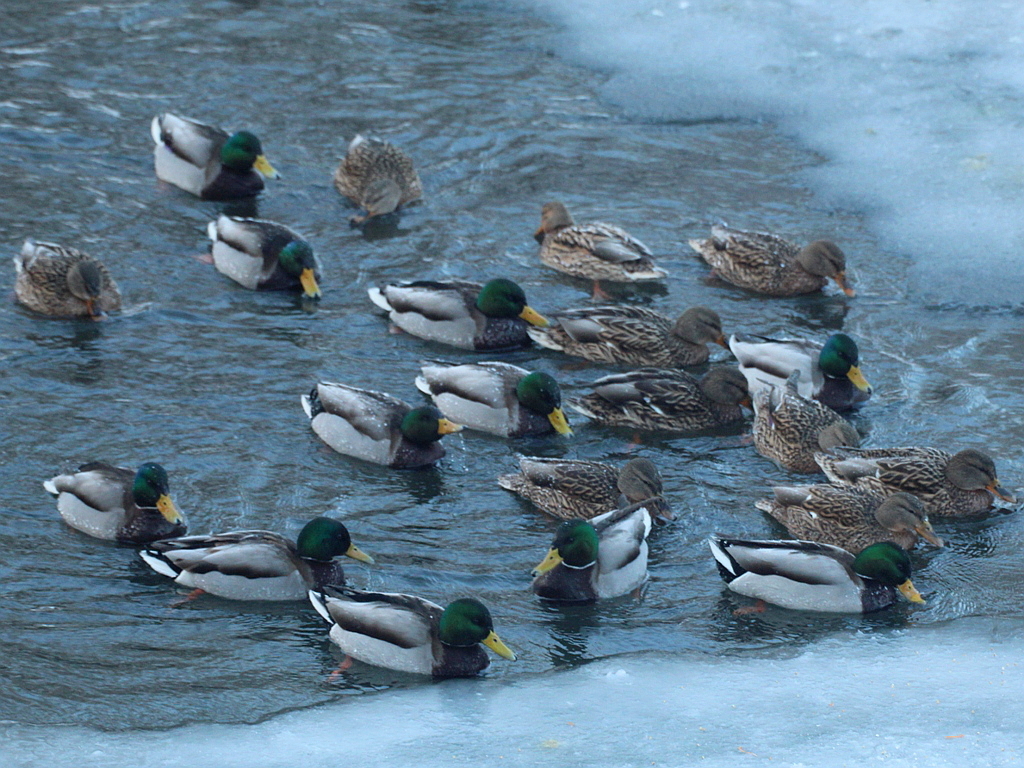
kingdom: Animalia
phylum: Chordata
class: Aves
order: Anseriformes
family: Anatidae
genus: Anas
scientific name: Anas platyrhynchos
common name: Mallard
